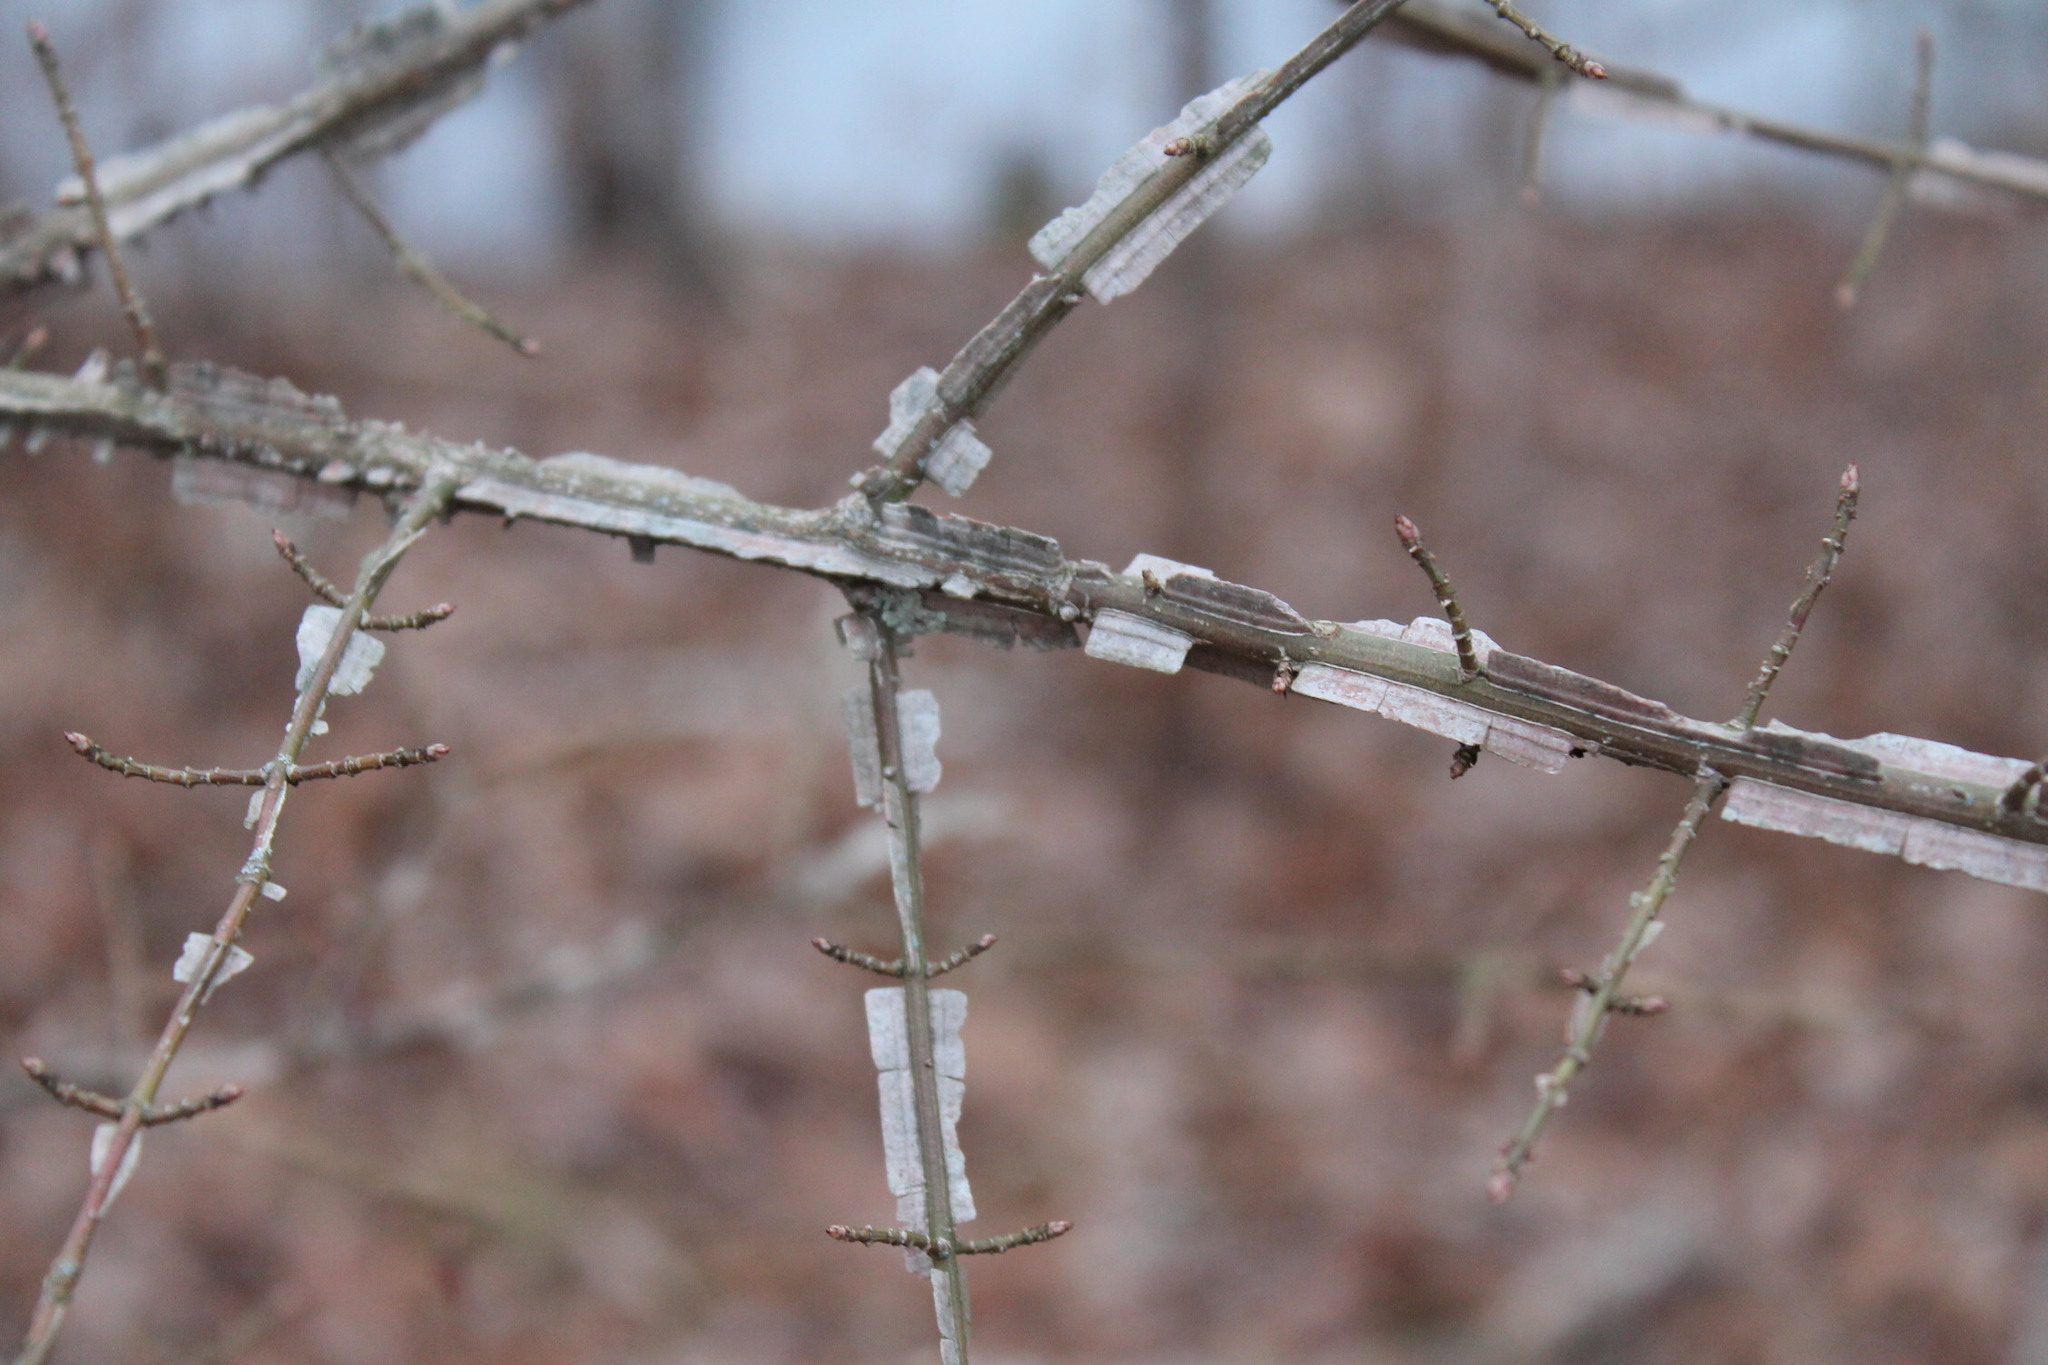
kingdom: Plantae
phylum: Tracheophyta
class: Magnoliopsida
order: Celastrales
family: Celastraceae
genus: Euonymus
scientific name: Euonymus alatus
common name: Winged euonymus
